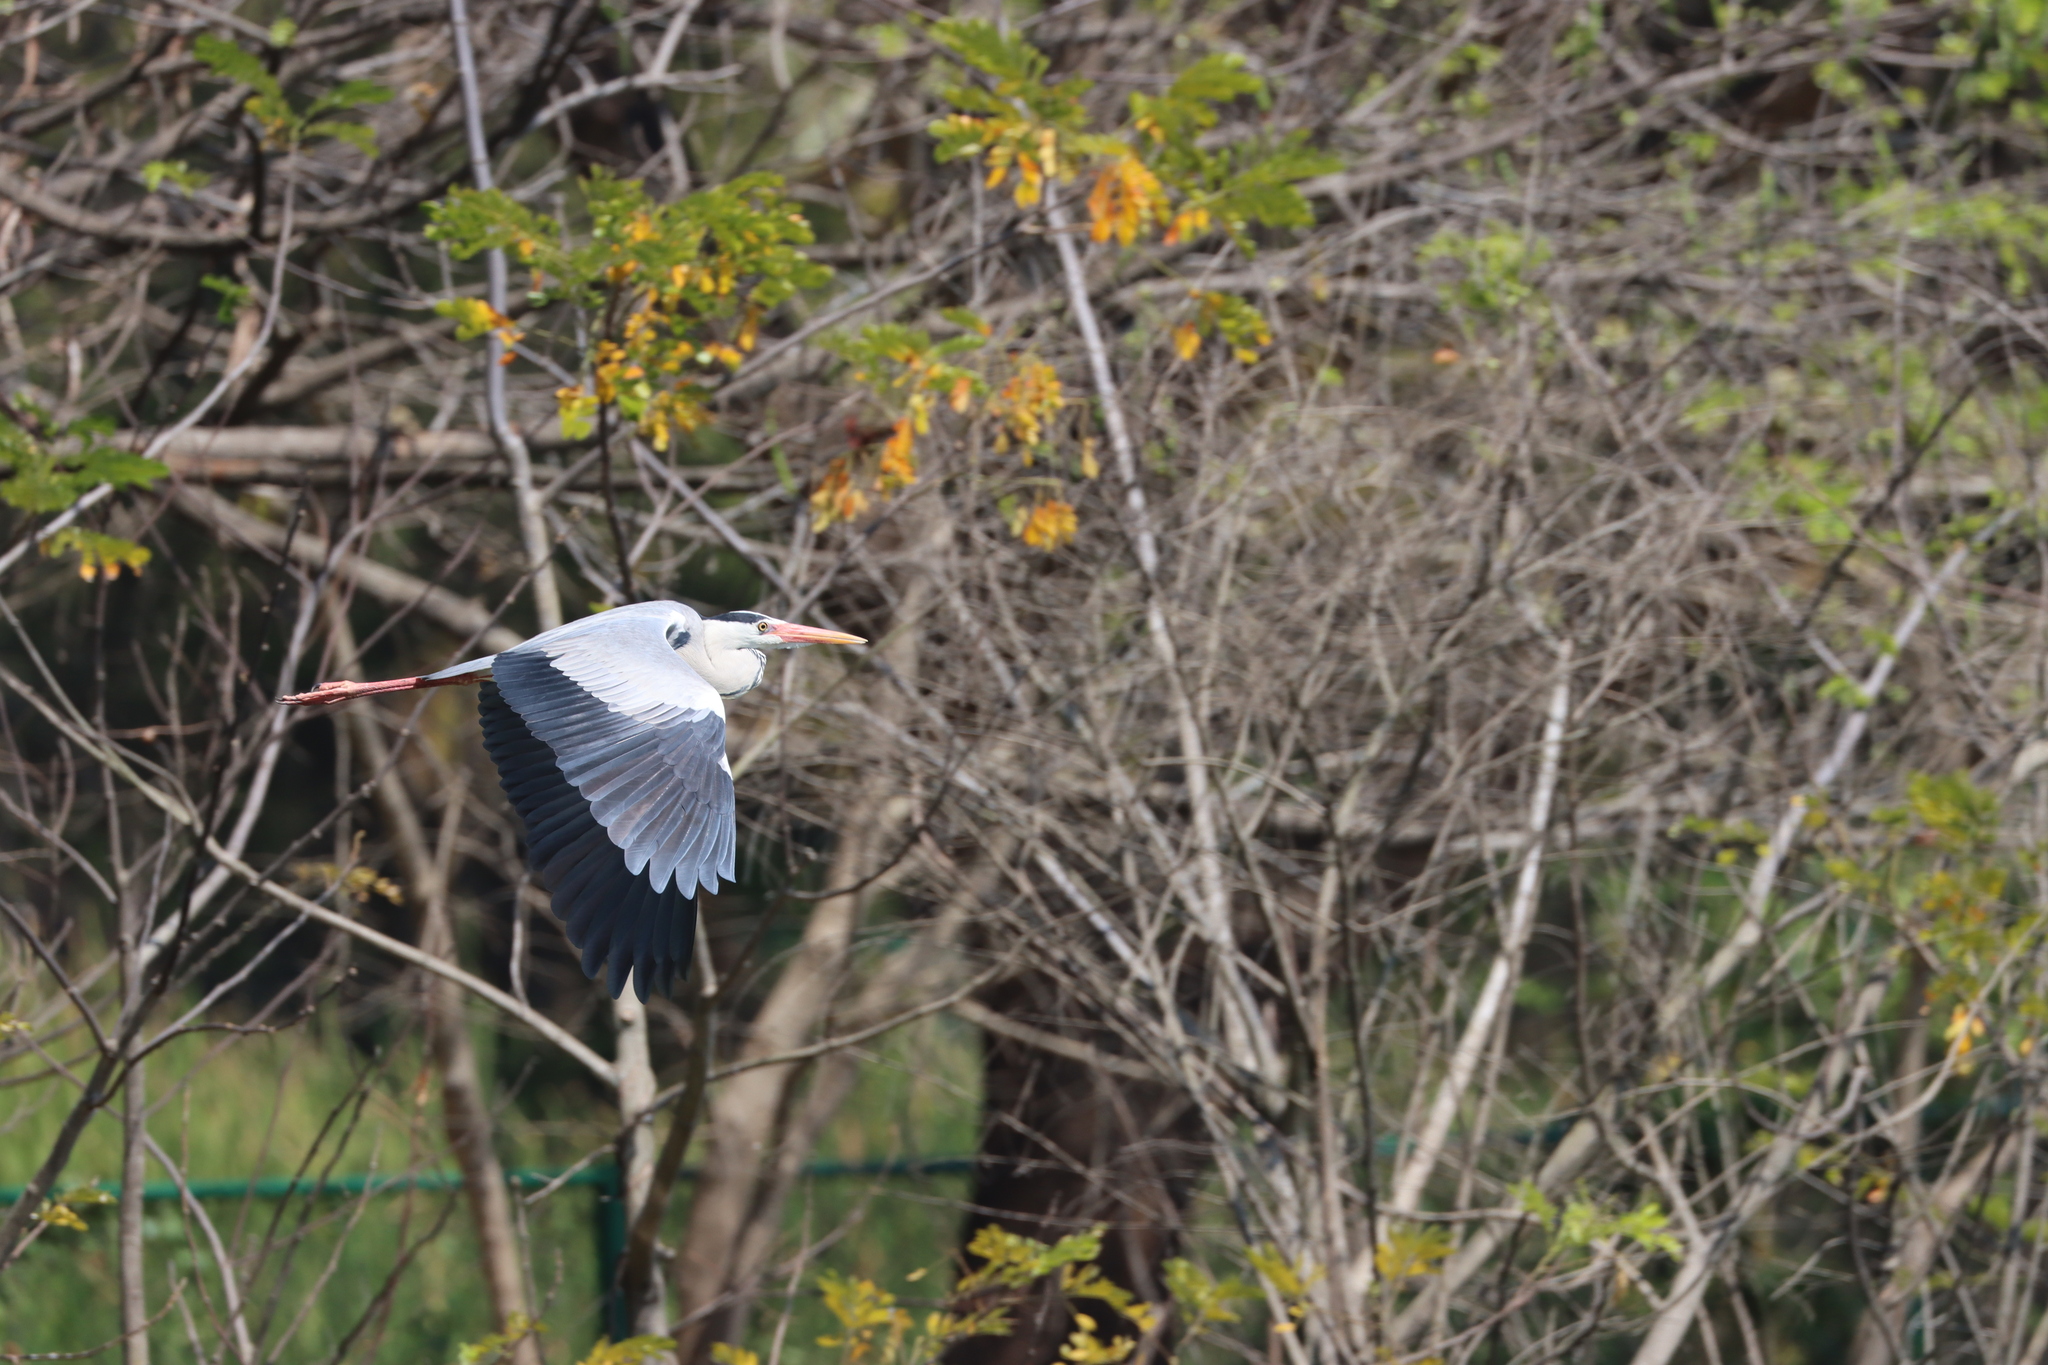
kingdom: Animalia
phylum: Chordata
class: Aves
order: Pelecaniformes
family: Ardeidae
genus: Ardea
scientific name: Ardea cinerea
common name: Grey heron
